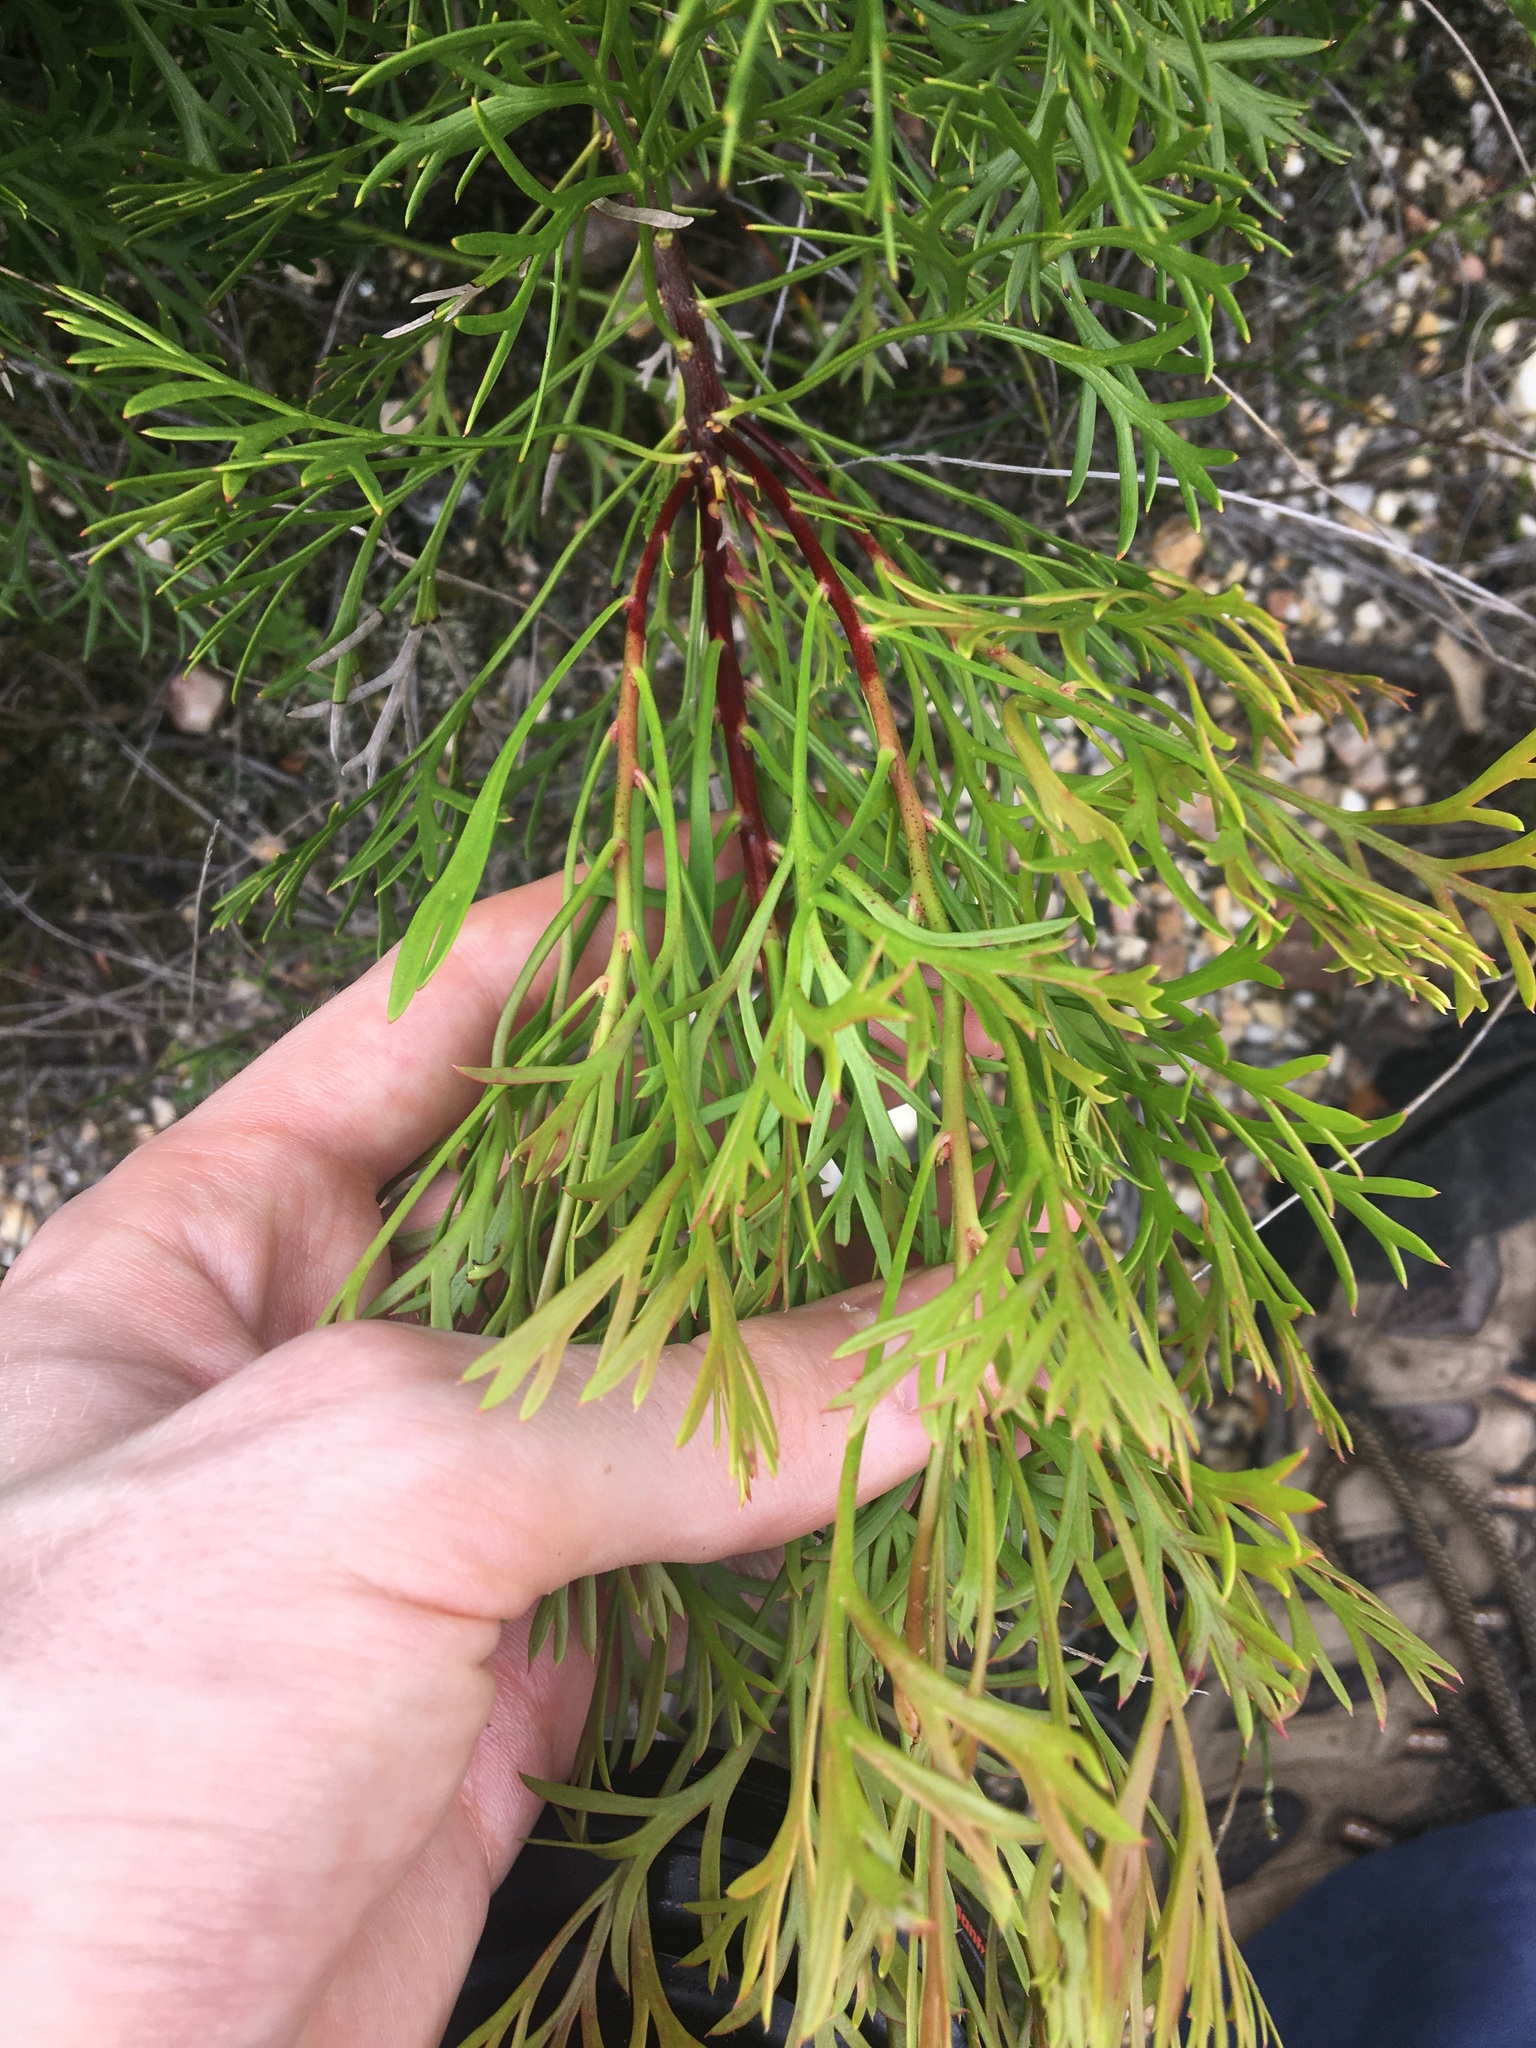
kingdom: Plantae
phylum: Tracheophyta
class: Magnoliopsida
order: Proteales
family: Proteaceae
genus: Isopogon
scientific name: Isopogon anemonifolius
